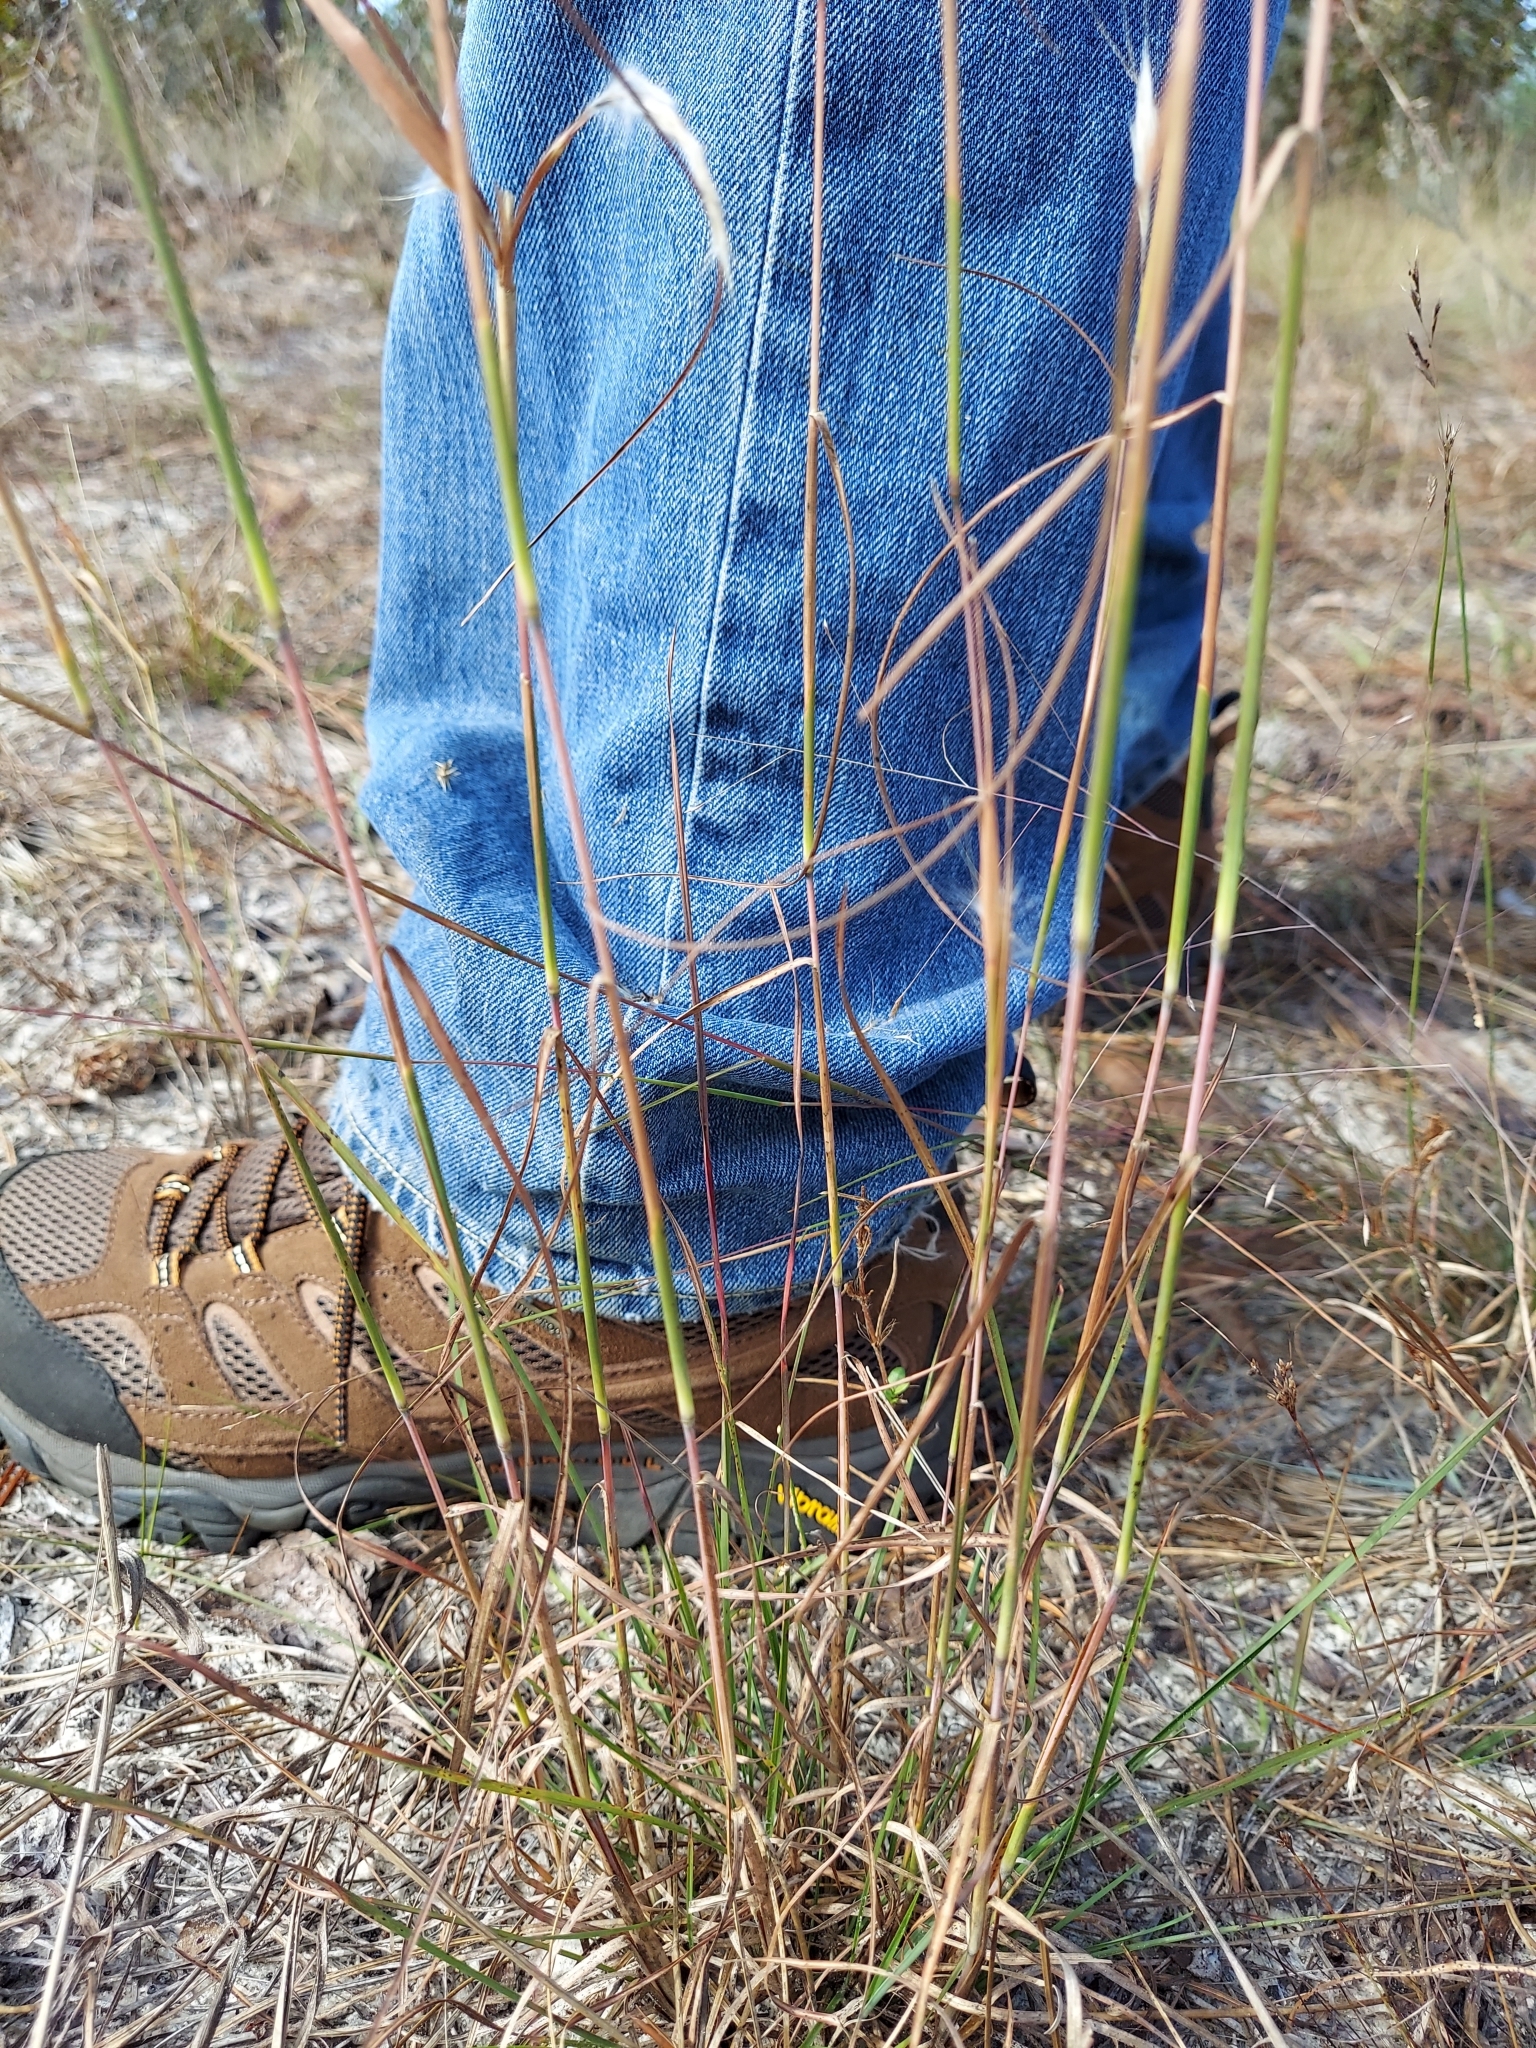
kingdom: Plantae
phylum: Tracheophyta
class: Liliopsida
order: Poales
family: Poaceae
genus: Andropogon
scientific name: Andropogon gyrans
